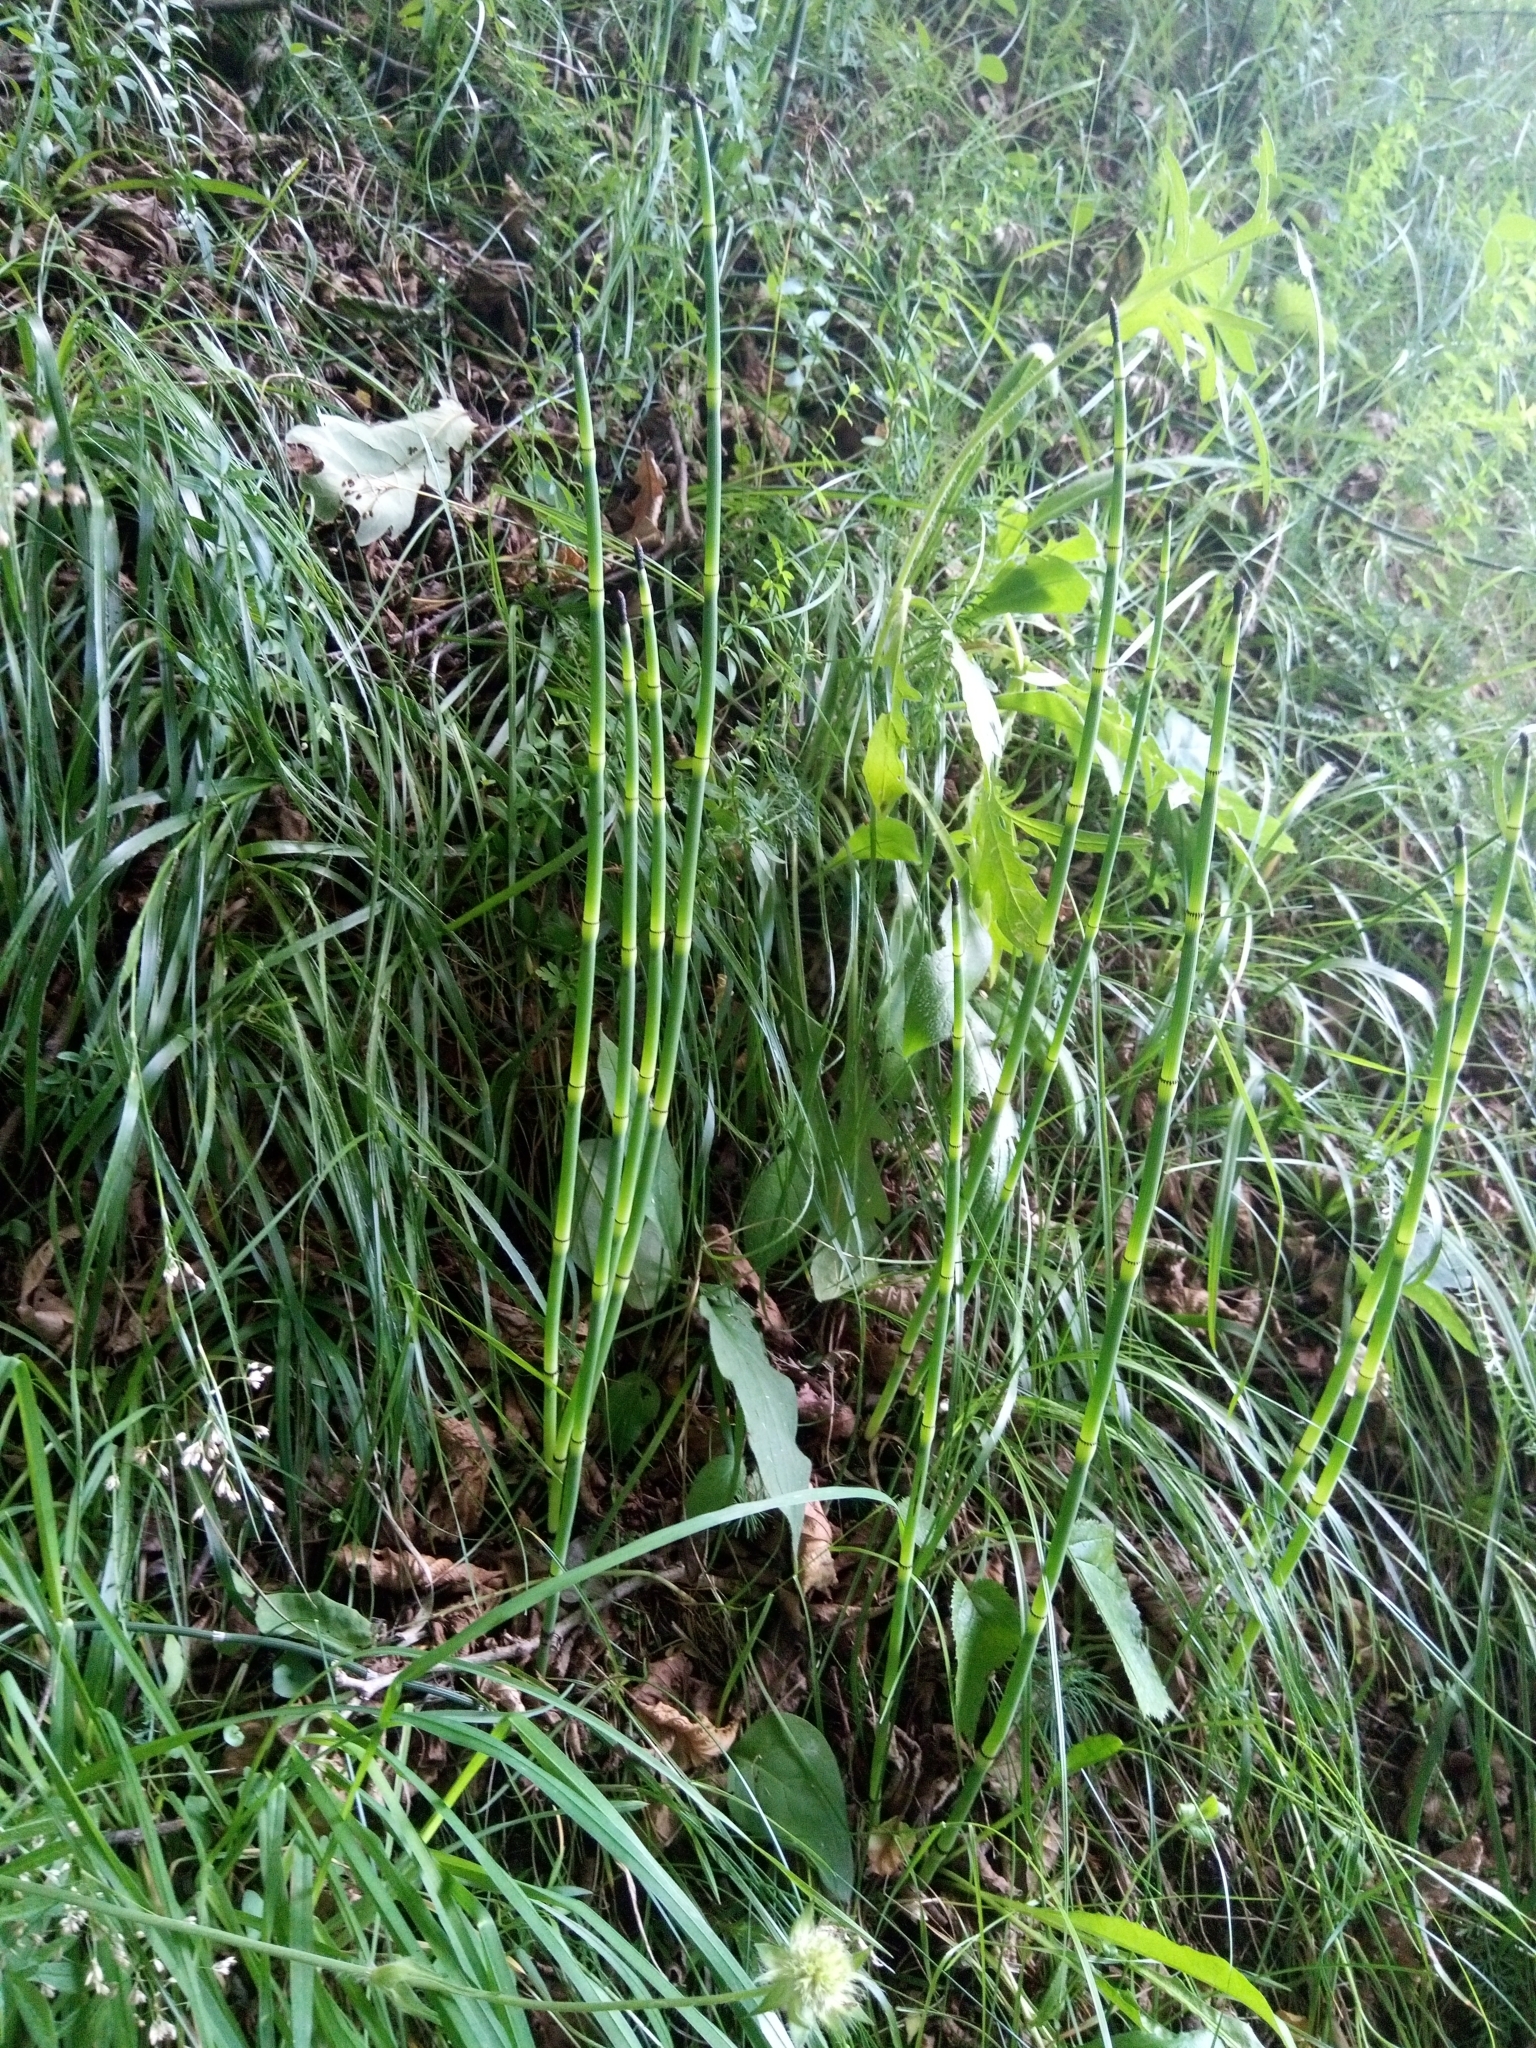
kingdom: Plantae
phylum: Tracheophyta
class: Polypodiopsida
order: Equisetales
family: Equisetaceae
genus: Equisetum
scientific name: Equisetum hyemale
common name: Rough horsetail
